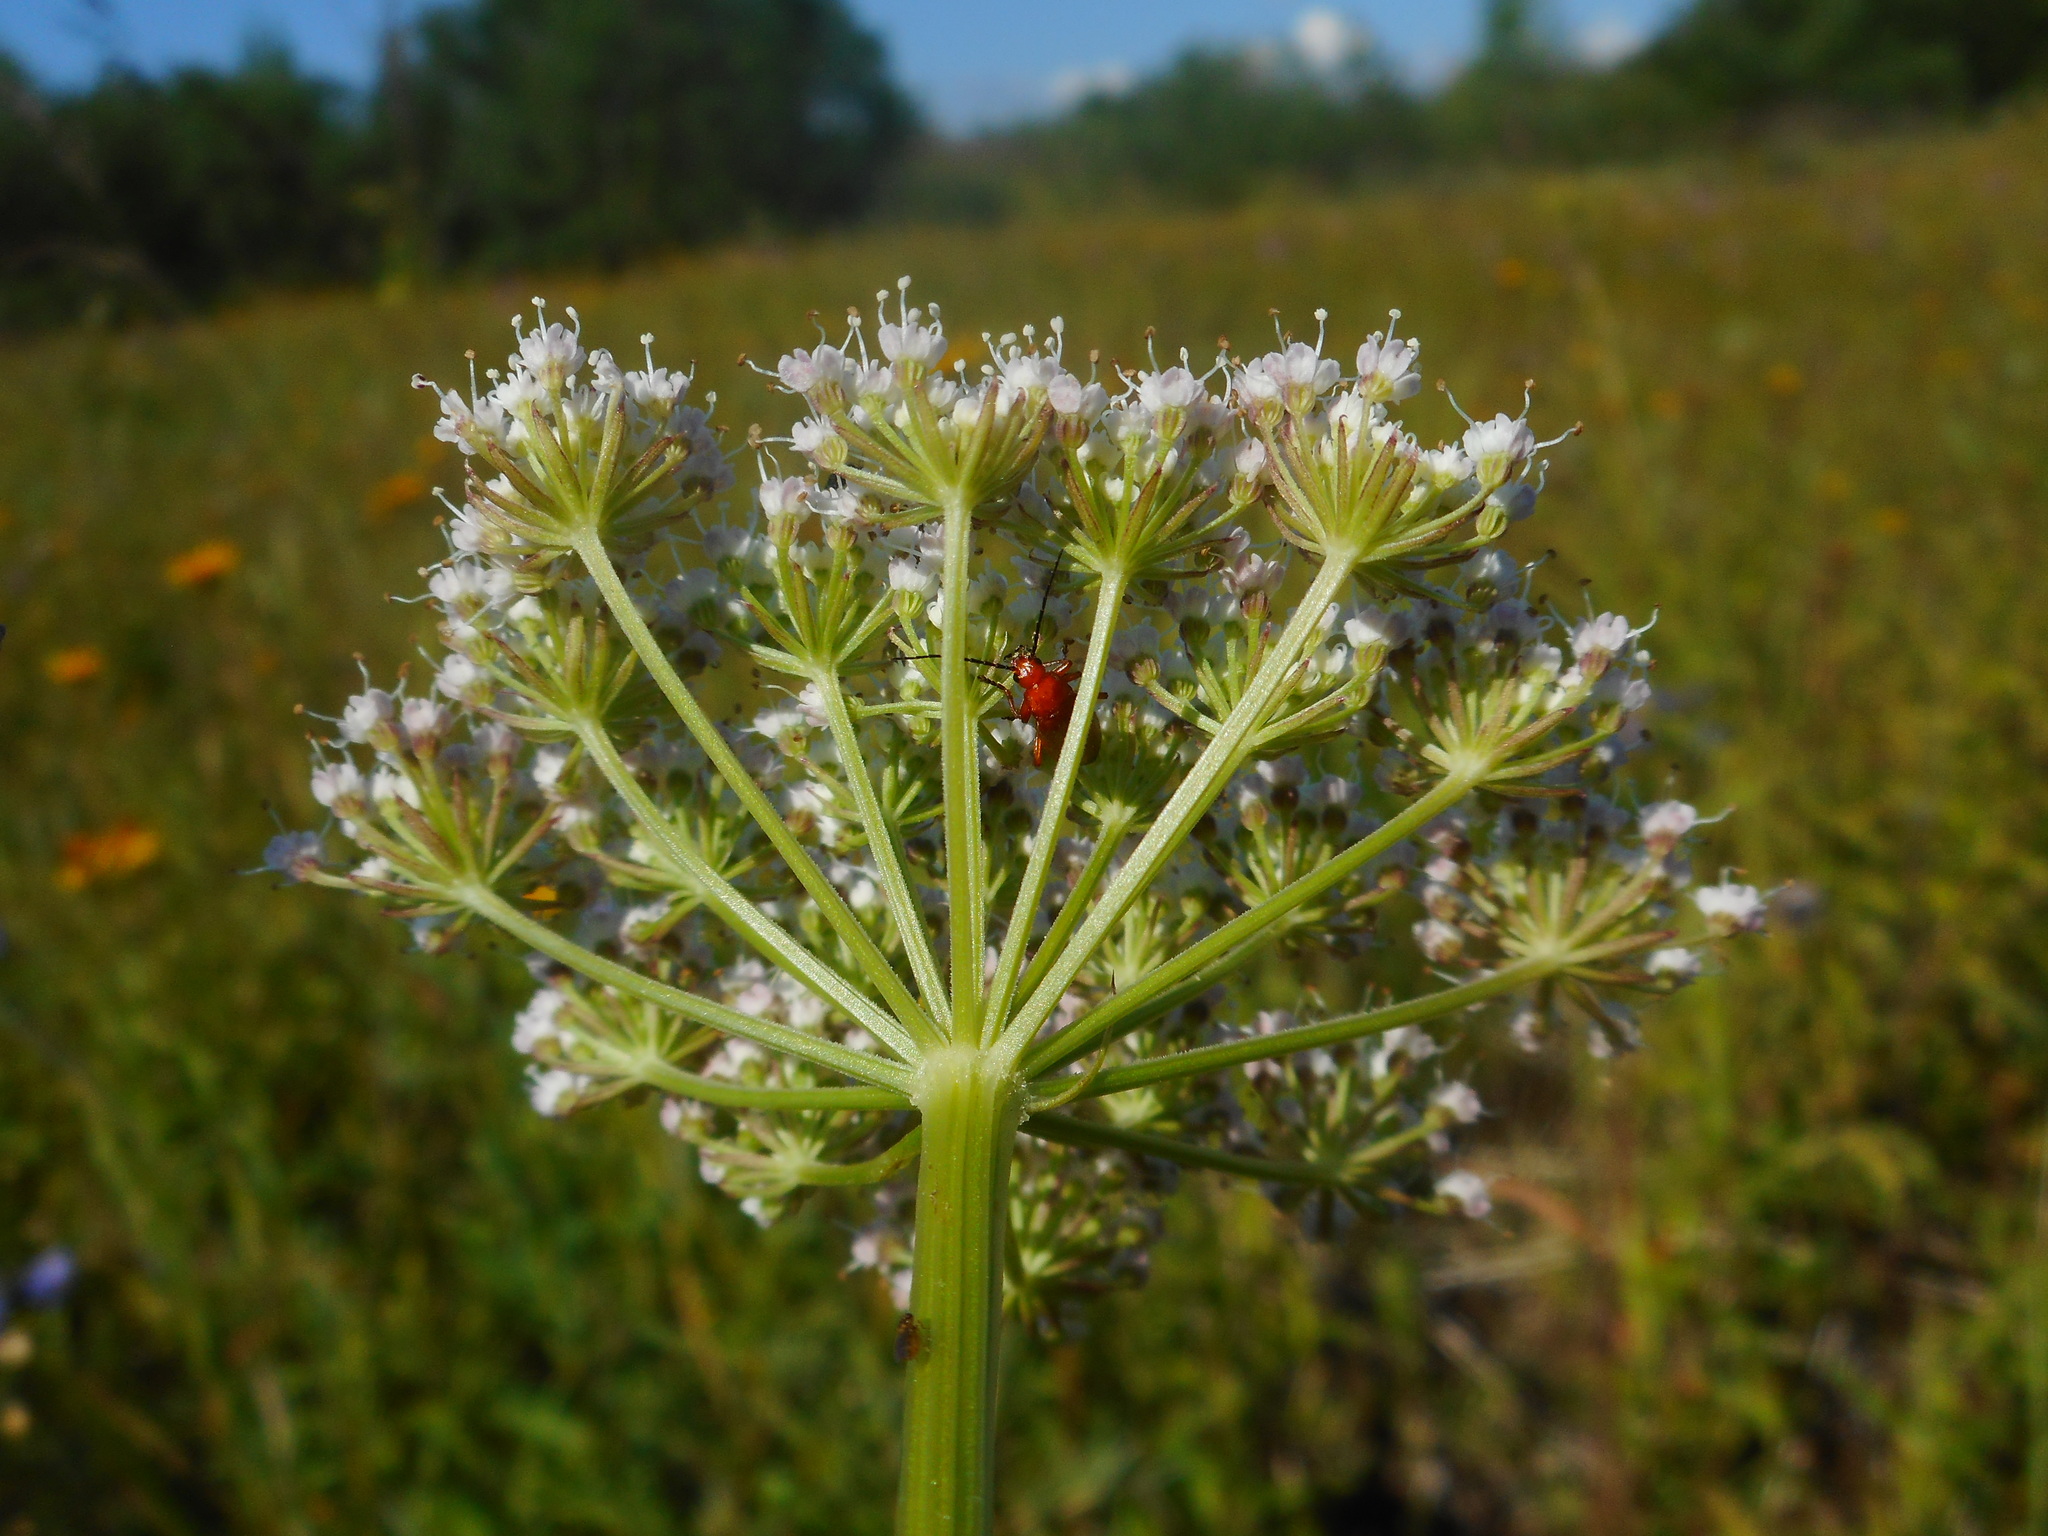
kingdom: Plantae
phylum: Tracheophyta
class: Magnoliopsida
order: Apiales
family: Apiaceae
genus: Selinum
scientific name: Selinum carvifolia
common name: Cambridge milk-parsley
